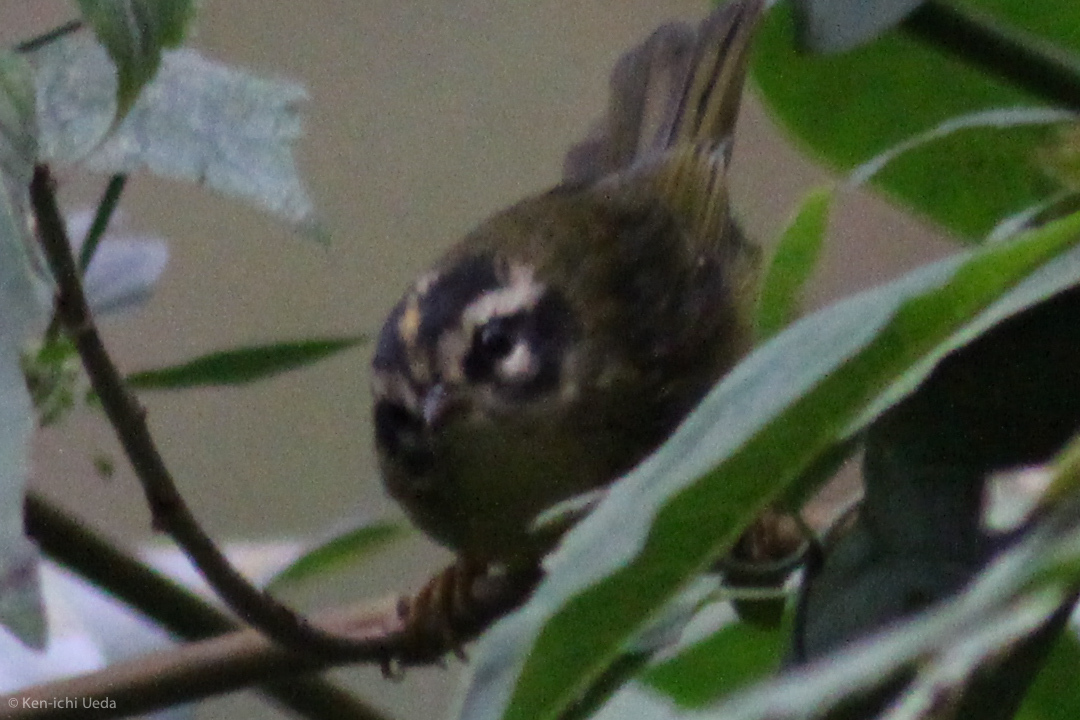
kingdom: Animalia
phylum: Chordata
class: Aves
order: Passeriformes
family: Parulidae
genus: Basileuterus
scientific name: Basileuterus tristriatus
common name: Three-striped warbler
